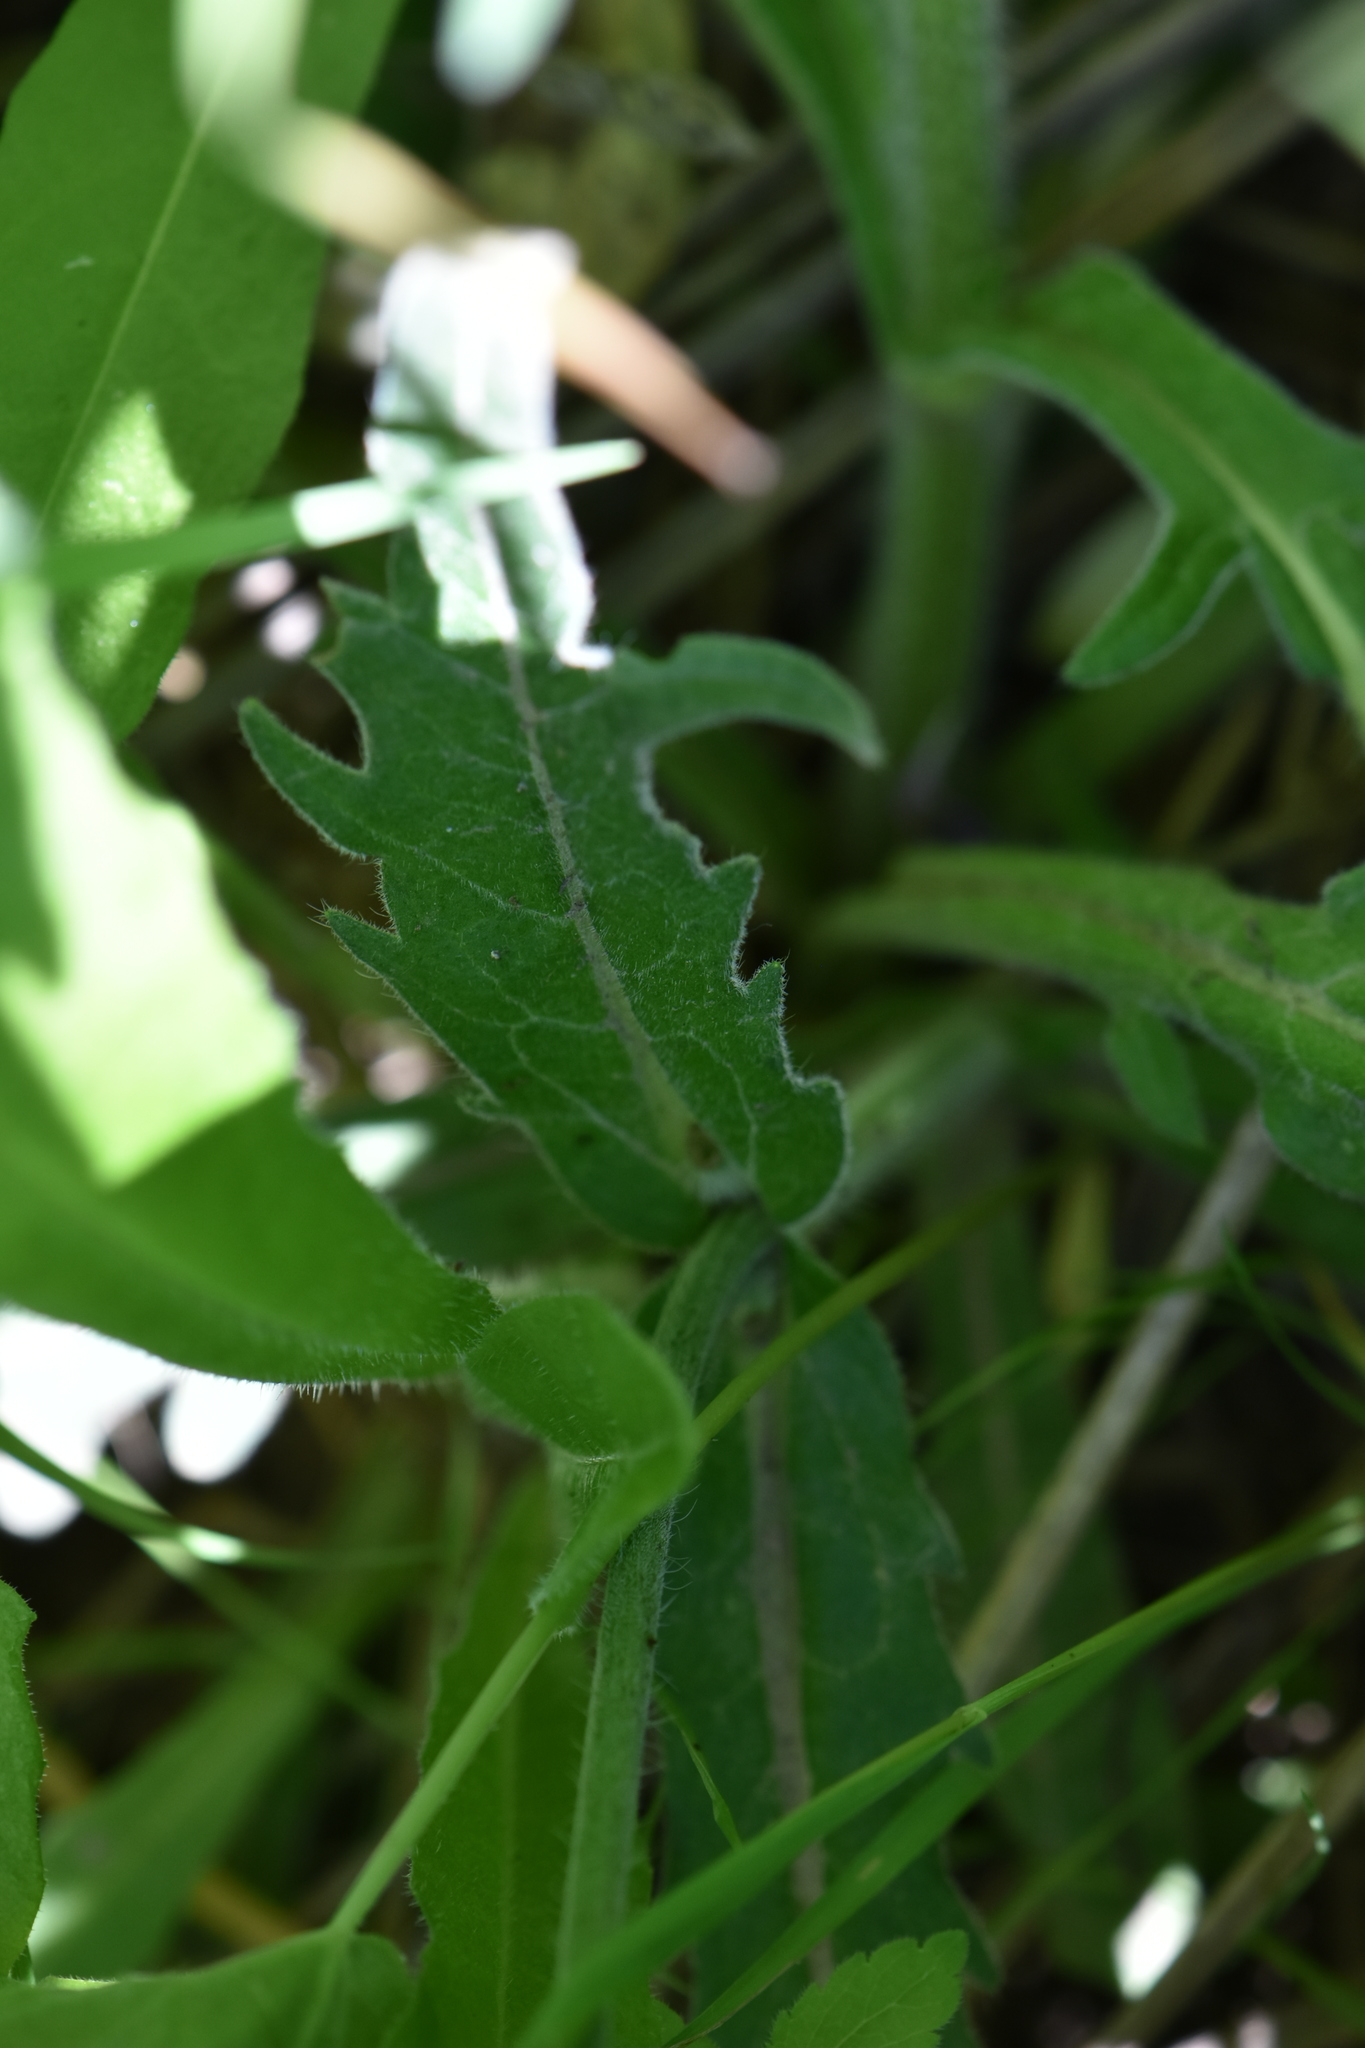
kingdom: Plantae
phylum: Tracheophyta
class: Magnoliopsida
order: Dipsacales
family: Caprifoliaceae
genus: Knautia
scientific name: Knautia arvensis
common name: Field scabiosa
